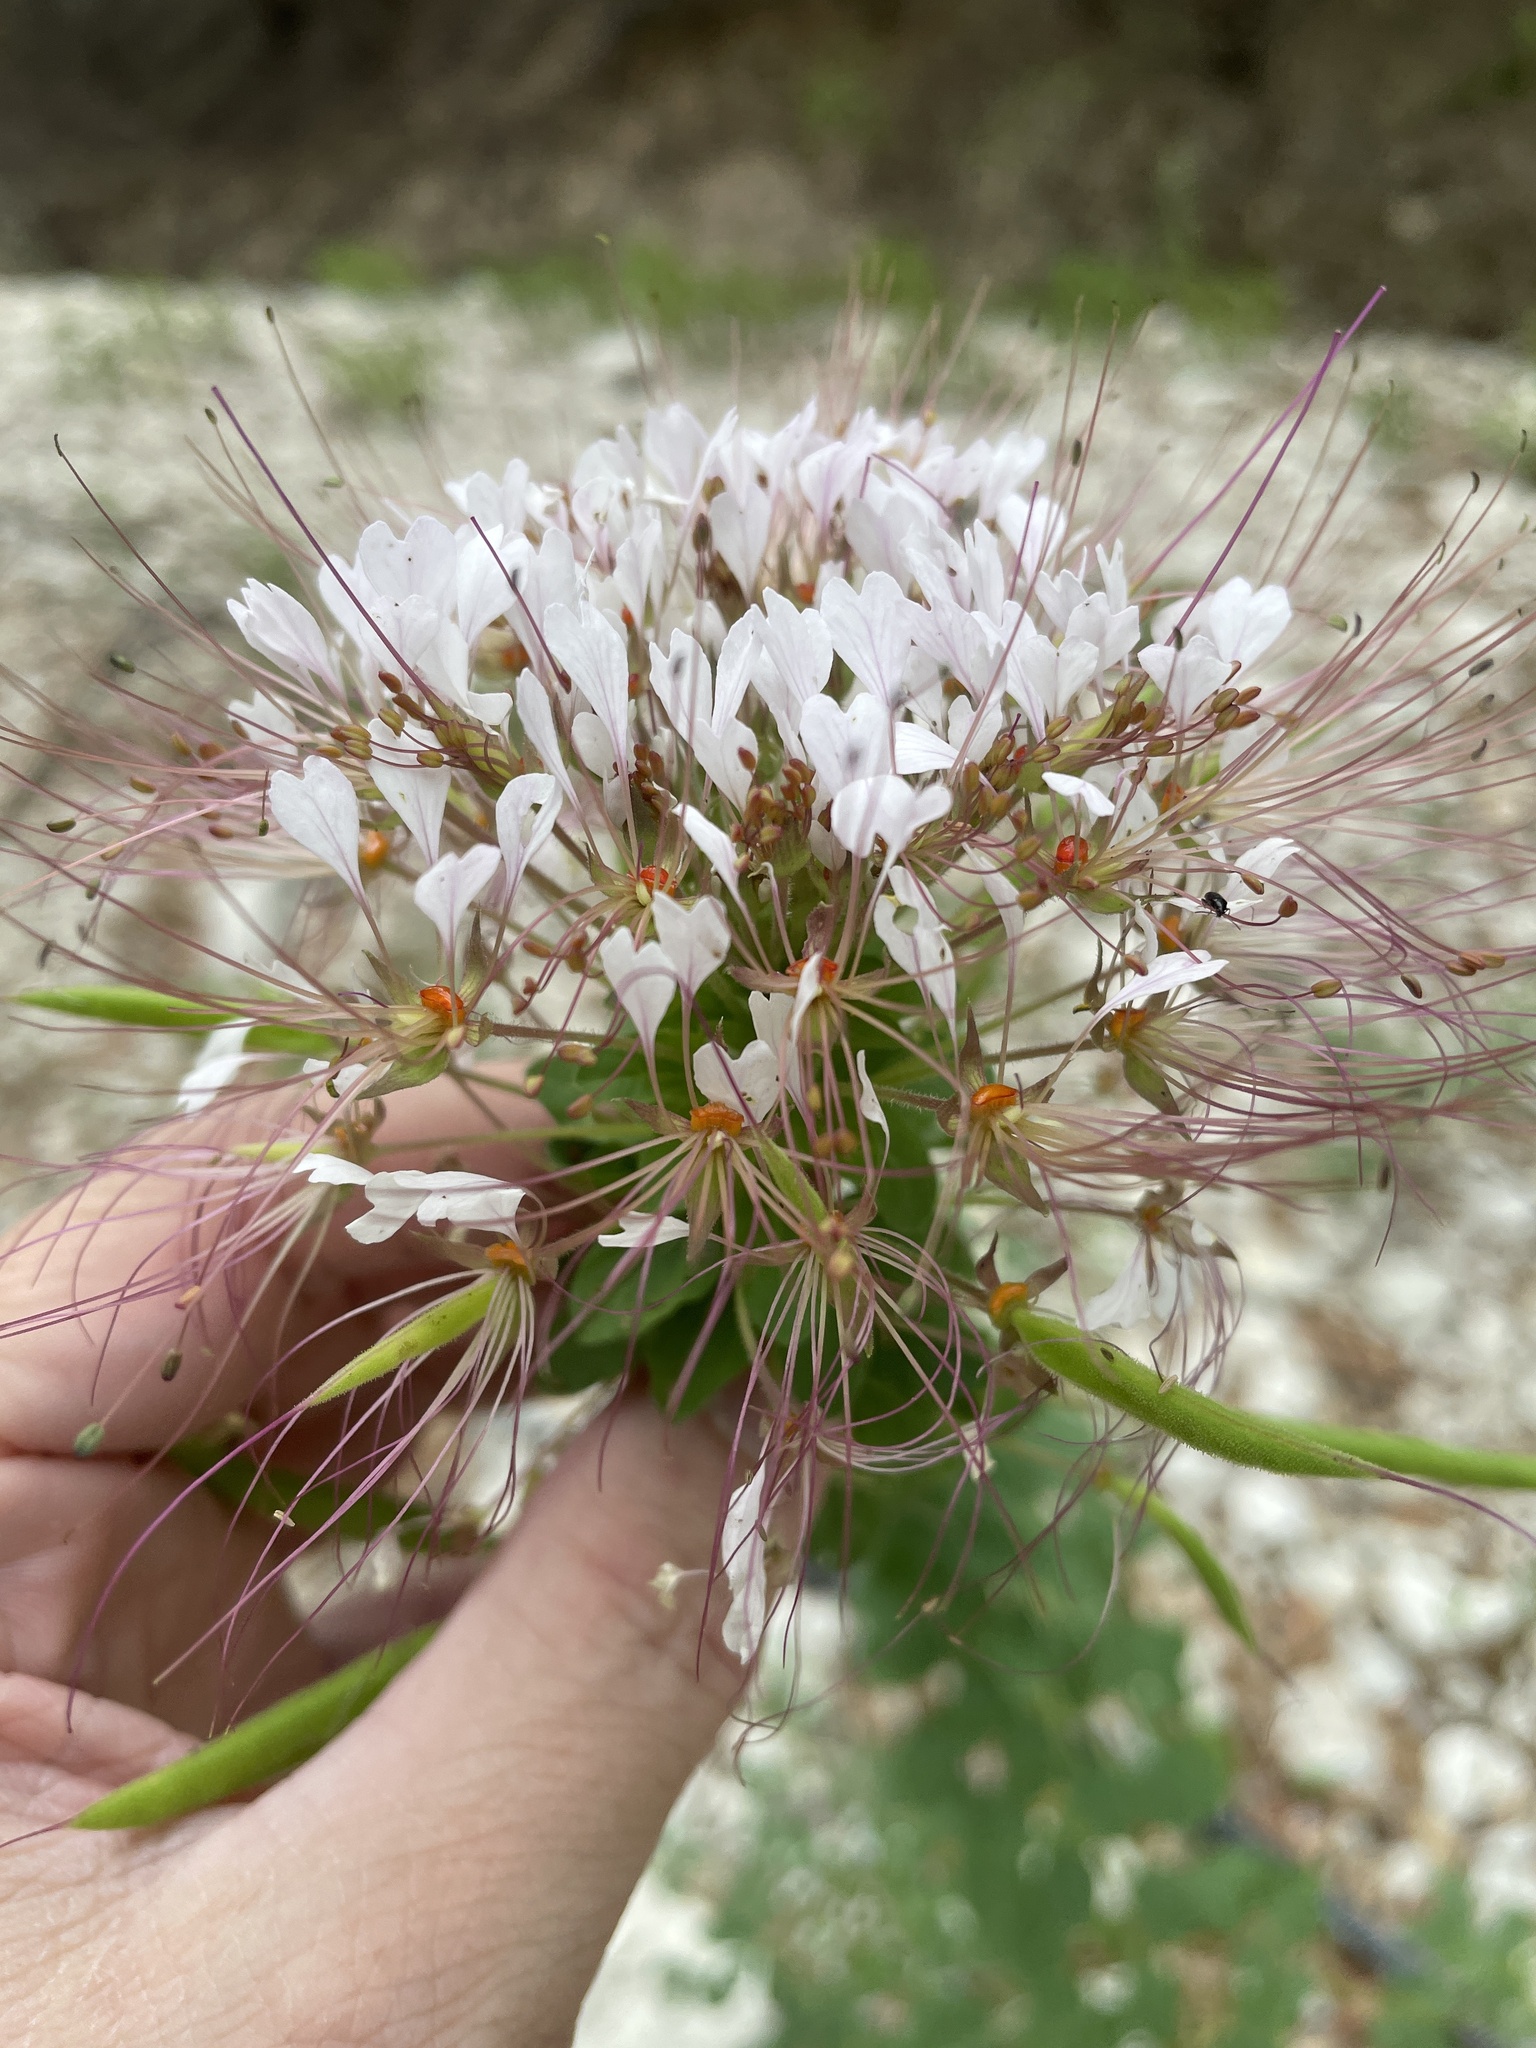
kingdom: Plantae
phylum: Tracheophyta
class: Magnoliopsida
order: Brassicales
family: Cleomaceae
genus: Polanisia
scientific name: Polanisia dodecandra
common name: Clammyweed
